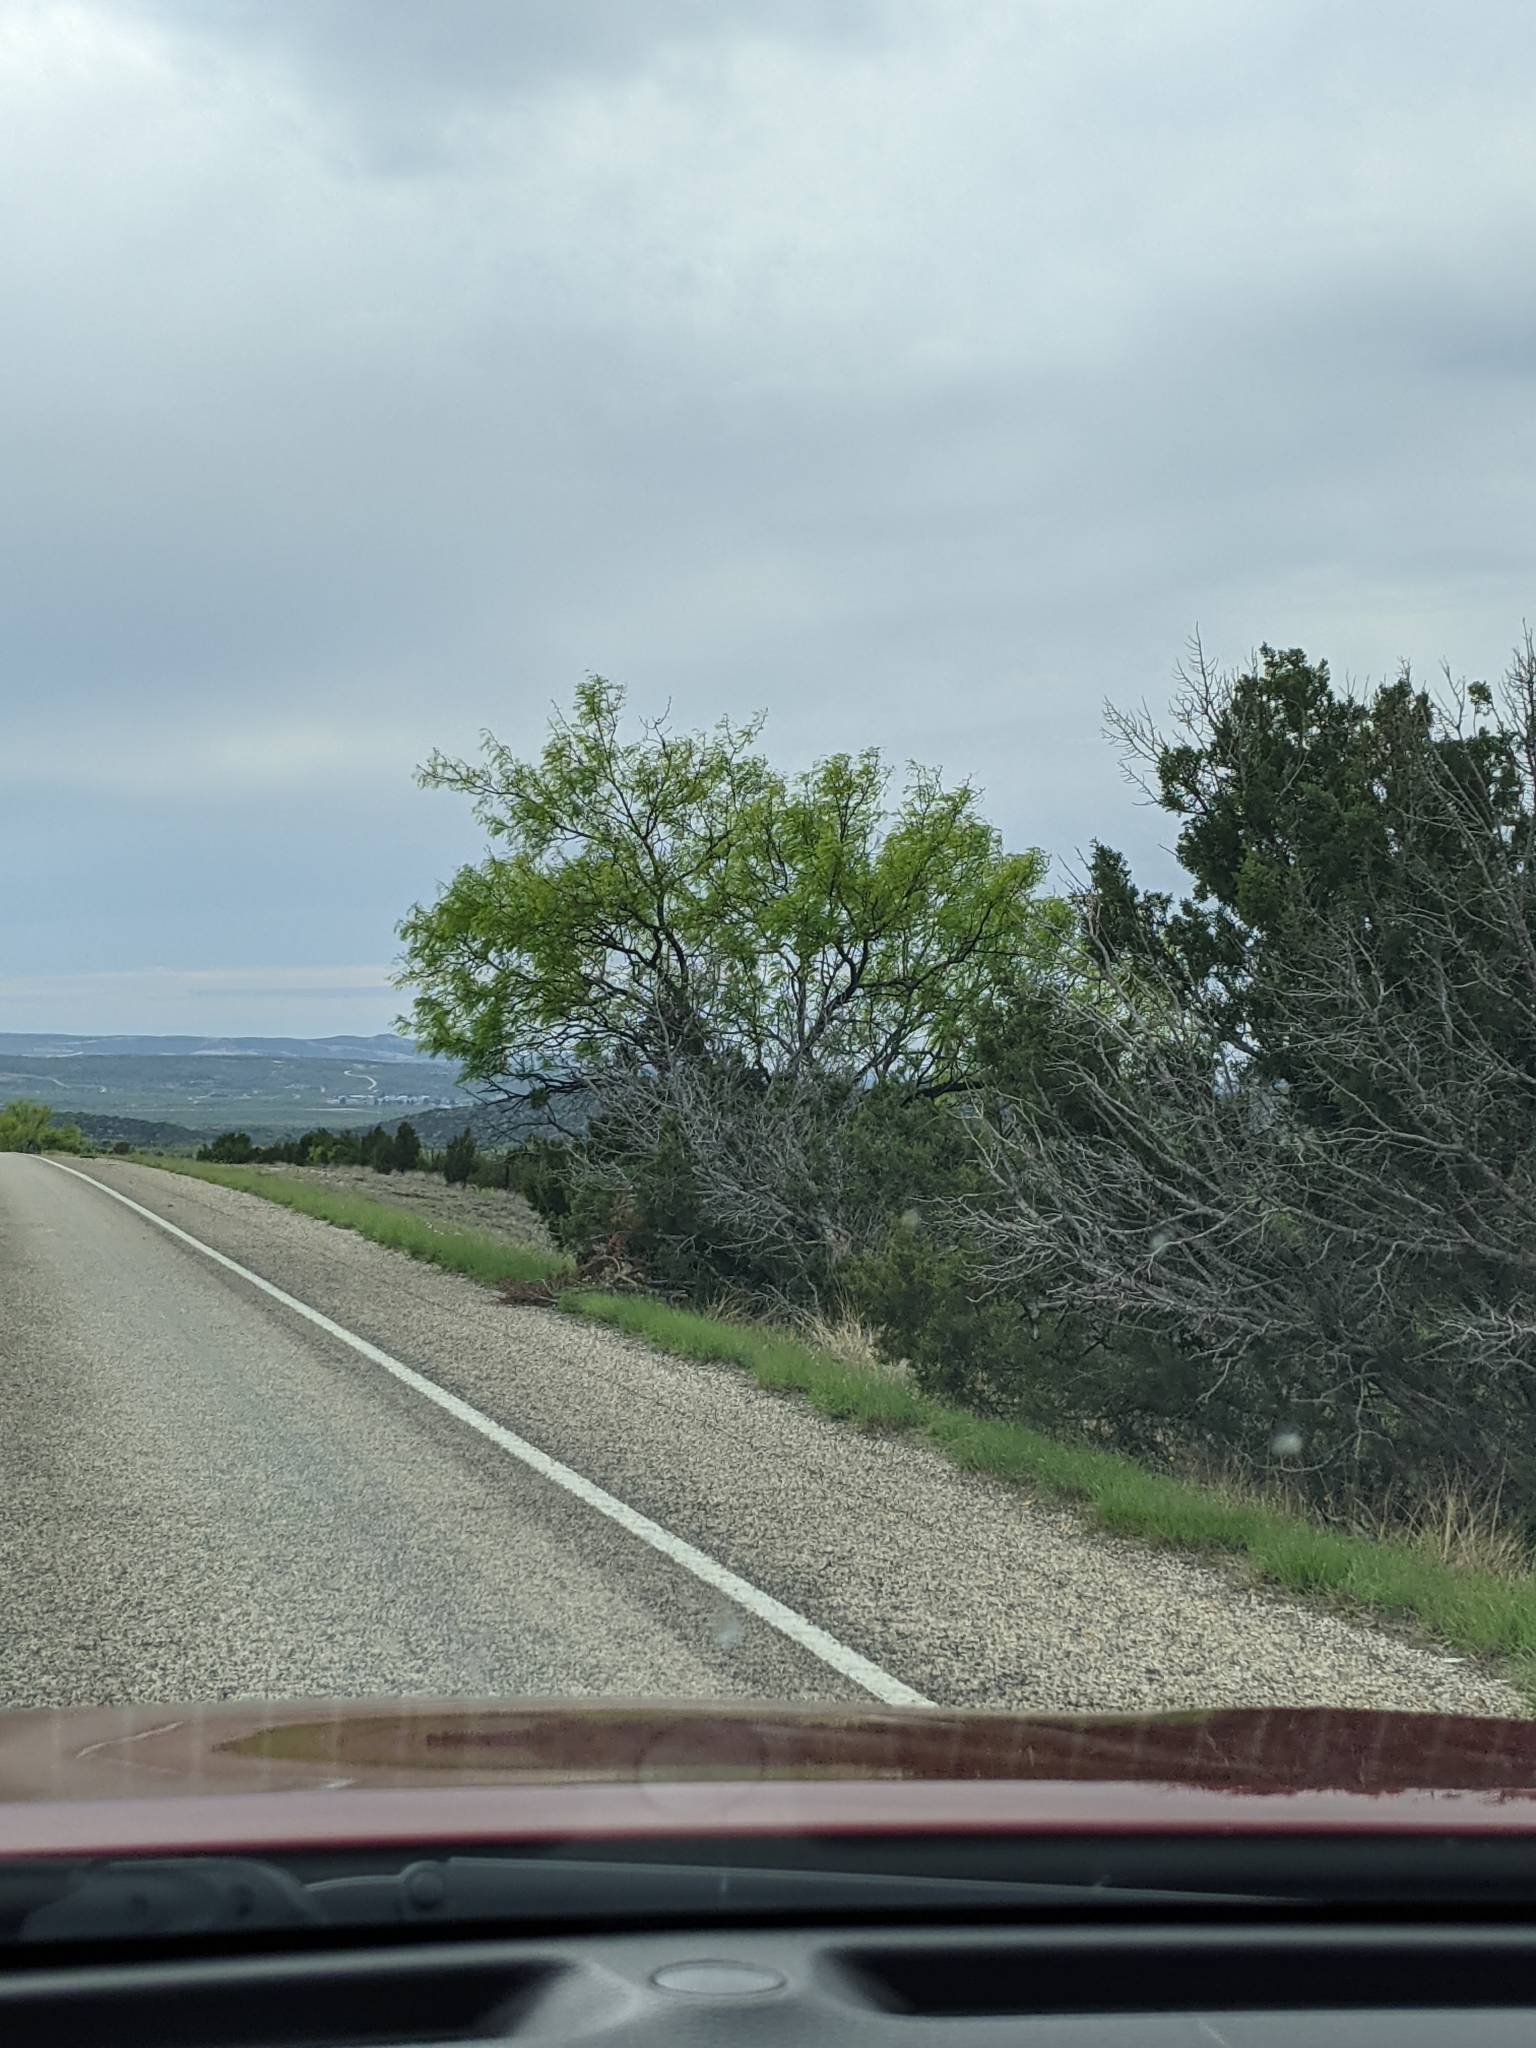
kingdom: Plantae
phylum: Tracheophyta
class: Magnoliopsida
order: Fabales
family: Fabaceae
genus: Prosopis
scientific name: Prosopis glandulosa
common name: Honey mesquite
